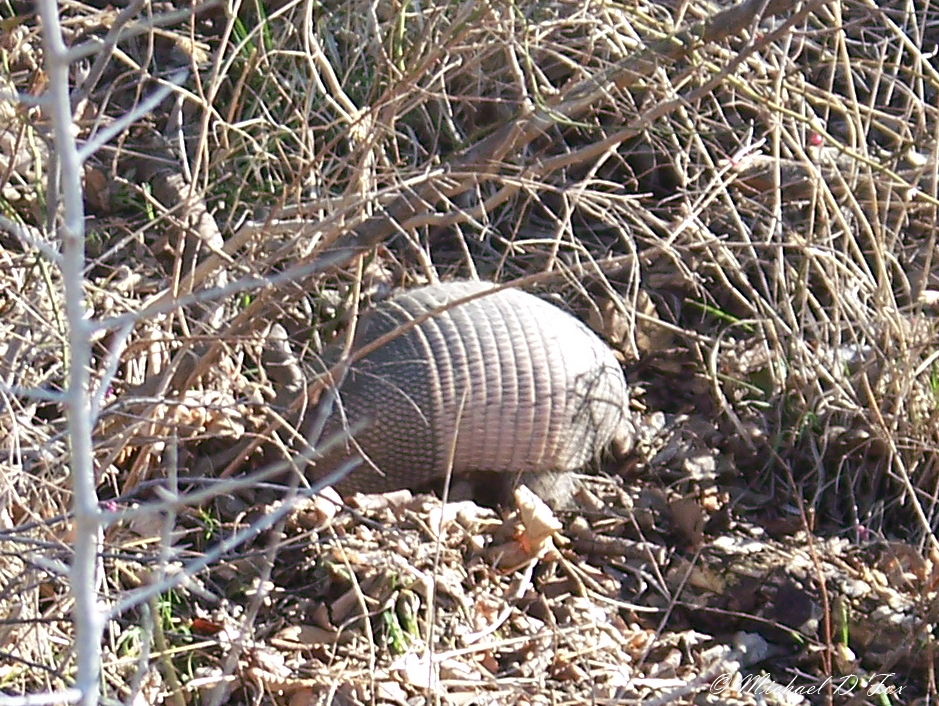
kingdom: Animalia
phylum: Chordata
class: Mammalia
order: Cingulata
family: Dasypodidae
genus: Dasypus
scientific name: Dasypus novemcinctus
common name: Nine-banded armadillo
